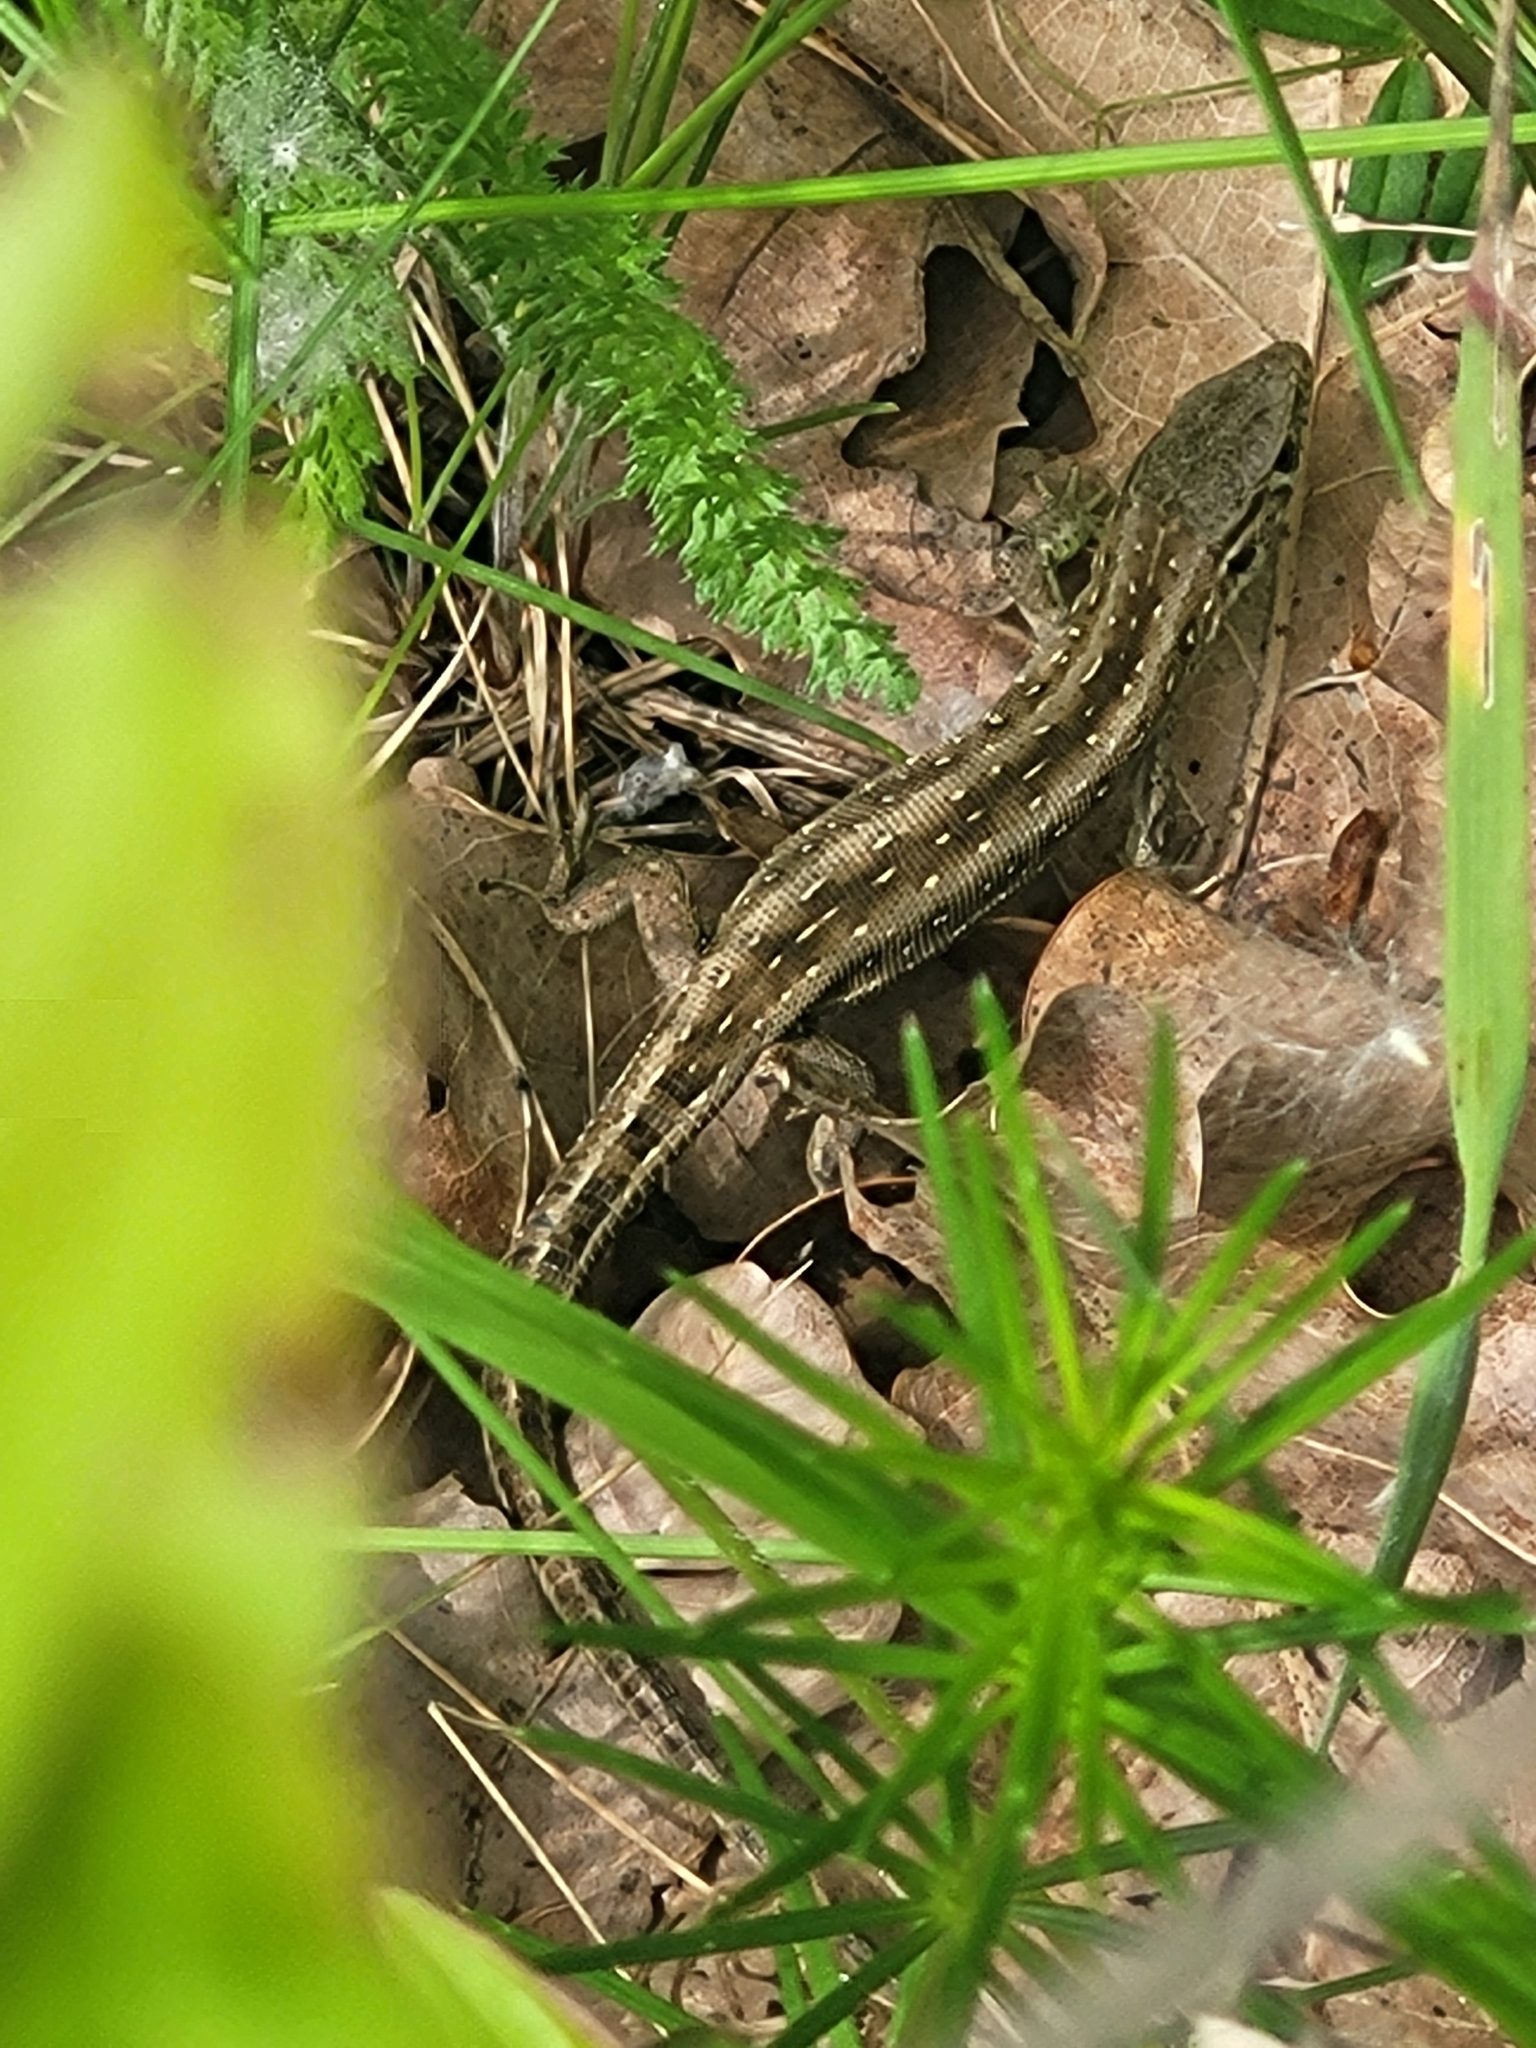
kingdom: Animalia
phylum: Chordata
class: Squamata
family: Lacertidae
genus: Lacerta
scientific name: Lacerta agilis
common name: Sand lizard
